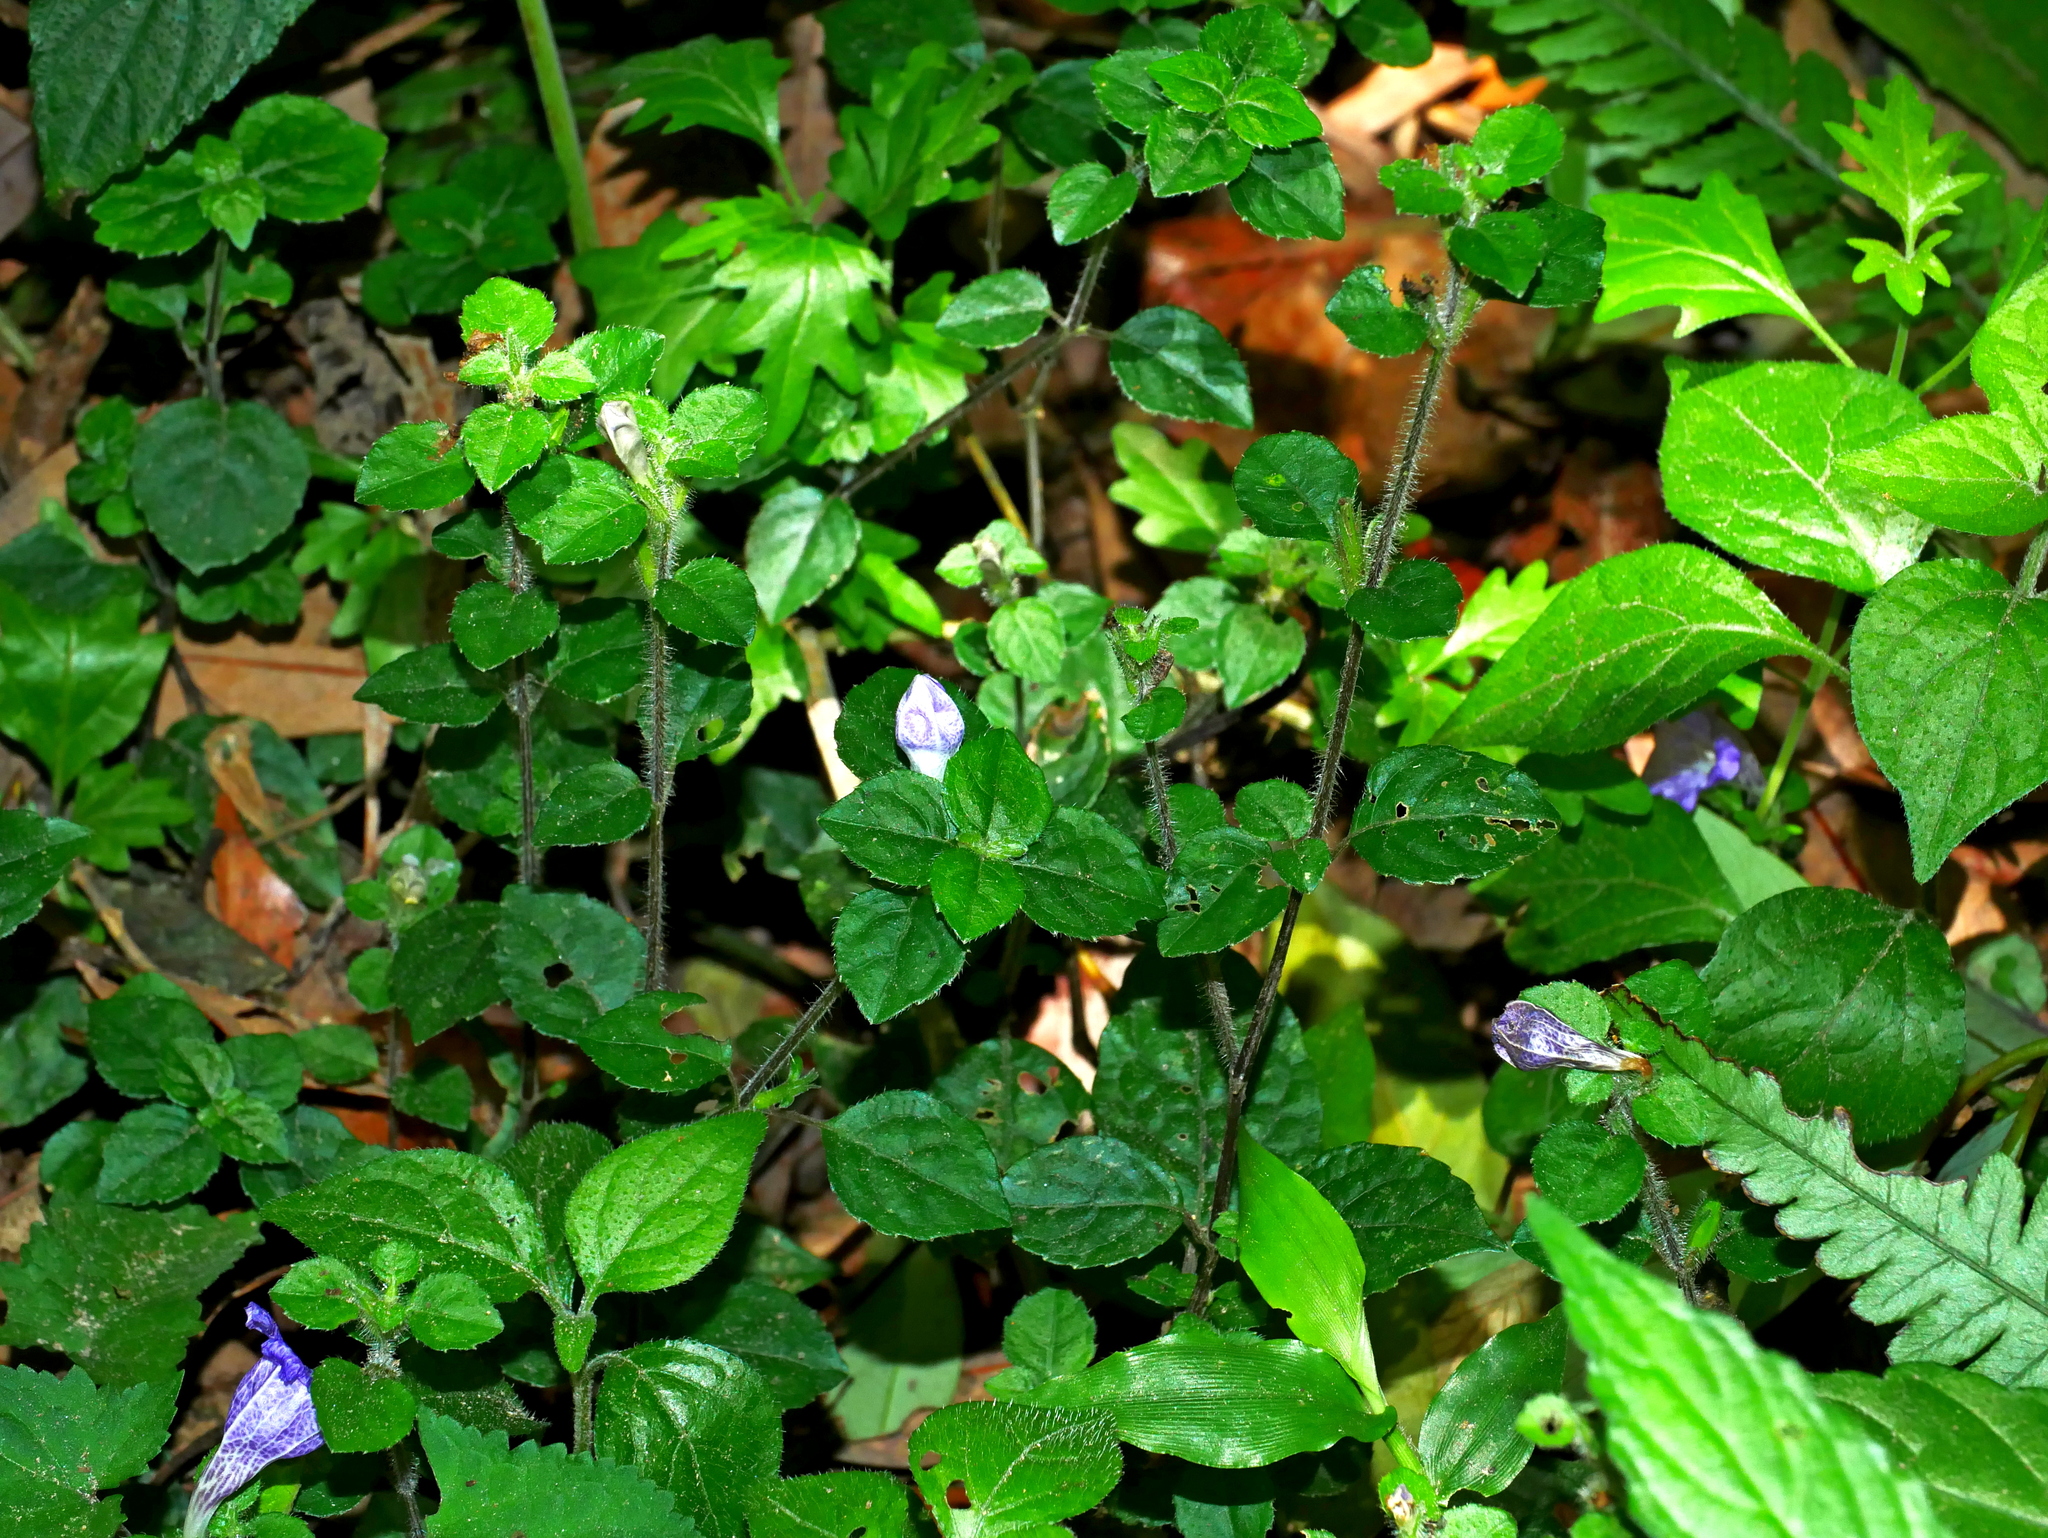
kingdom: Plantae
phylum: Tracheophyta
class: Magnoliopsida
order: Lamiales
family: Acanthaceae
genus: Strobilanthes
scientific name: Strobilanthes rankanensis
